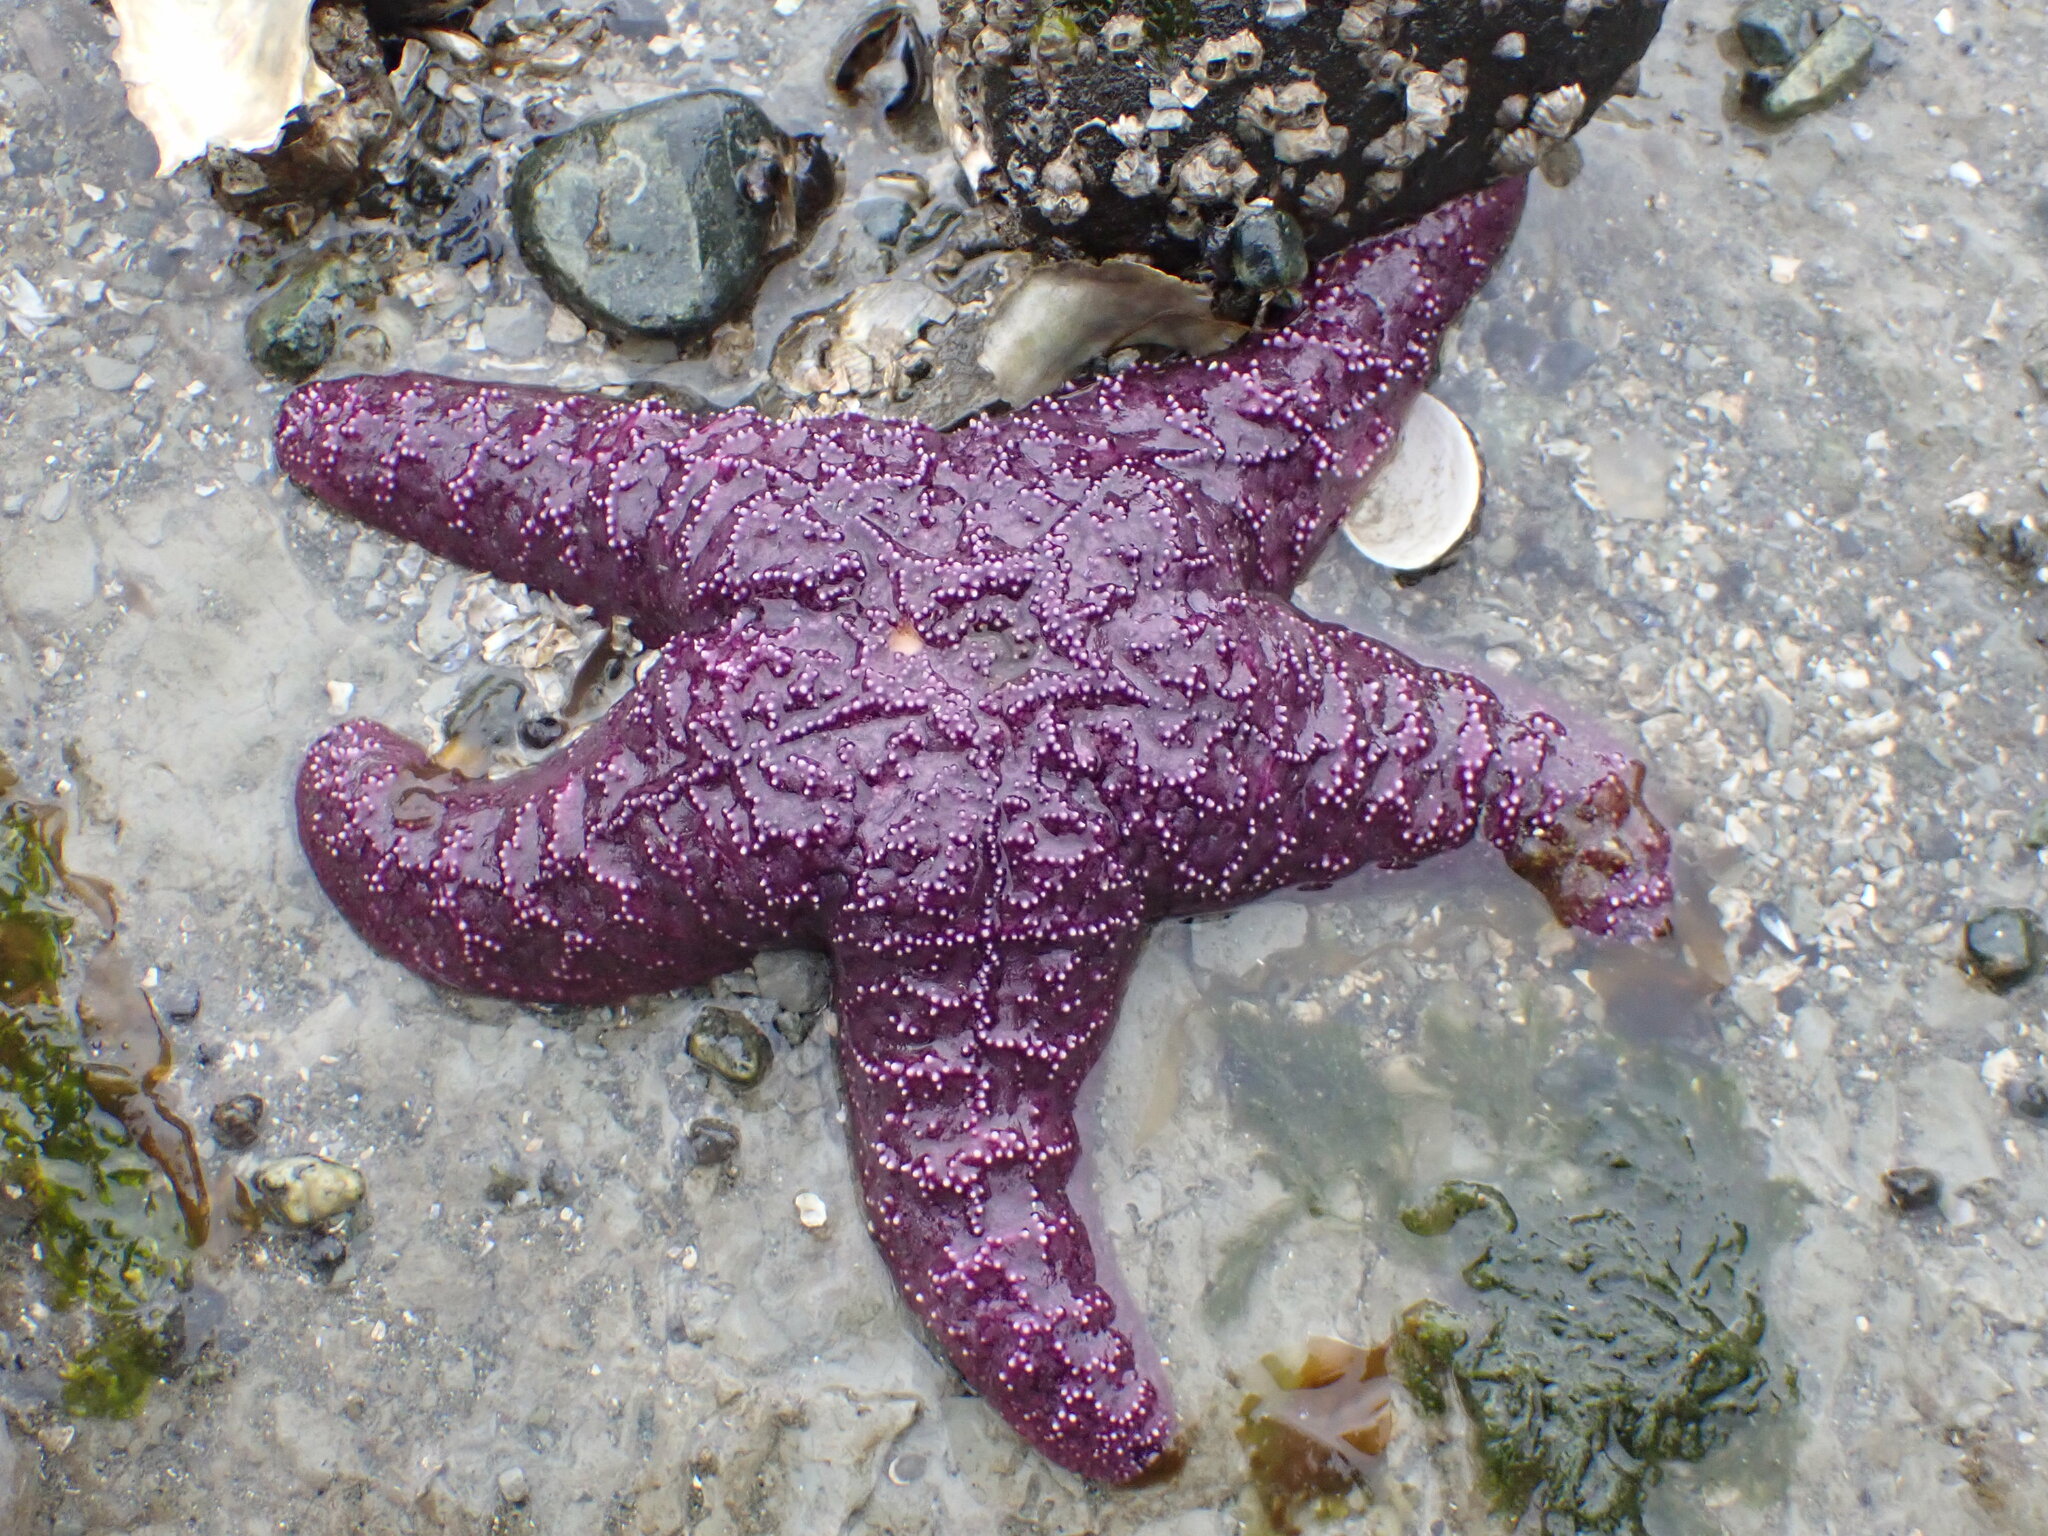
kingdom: Animalia
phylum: Echinodermata
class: Asteroidea
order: Forcipulatida
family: Asteriidae
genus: Pisaster
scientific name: Pisaster ochraceus
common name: Ochre stars
